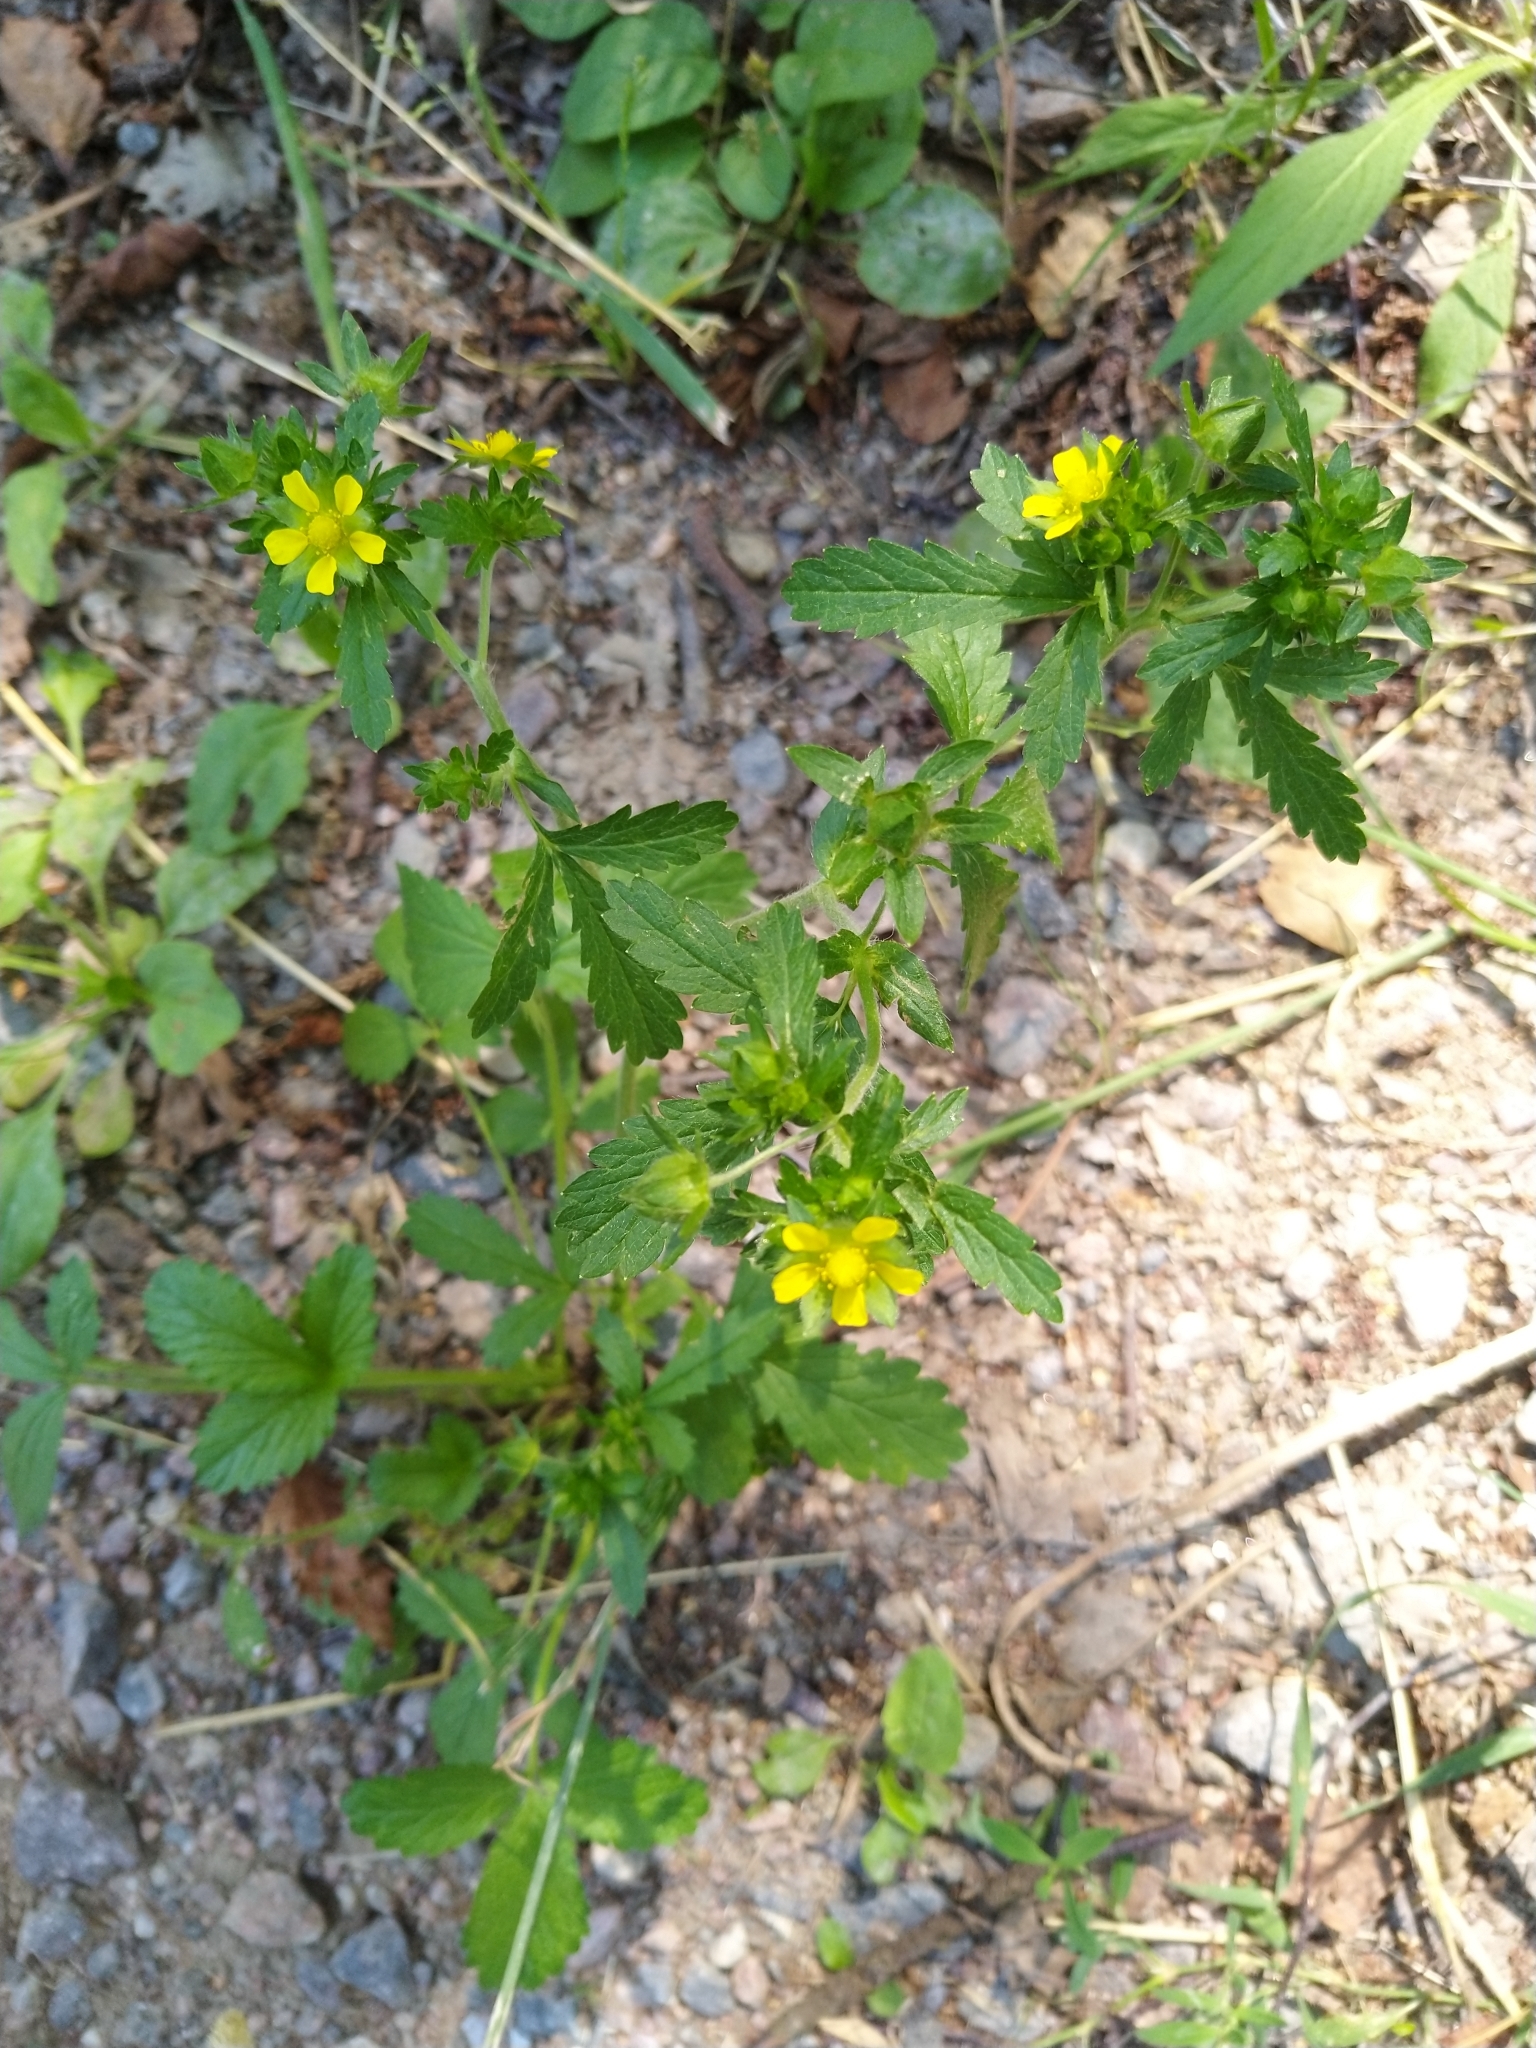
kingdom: Plantae
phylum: Tracheophyta
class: Magnoliopsida
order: Rosales
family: Rosaceae
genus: Potentilla
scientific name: Potentilla norvegica
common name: Ternate-leaved cinquefoil
